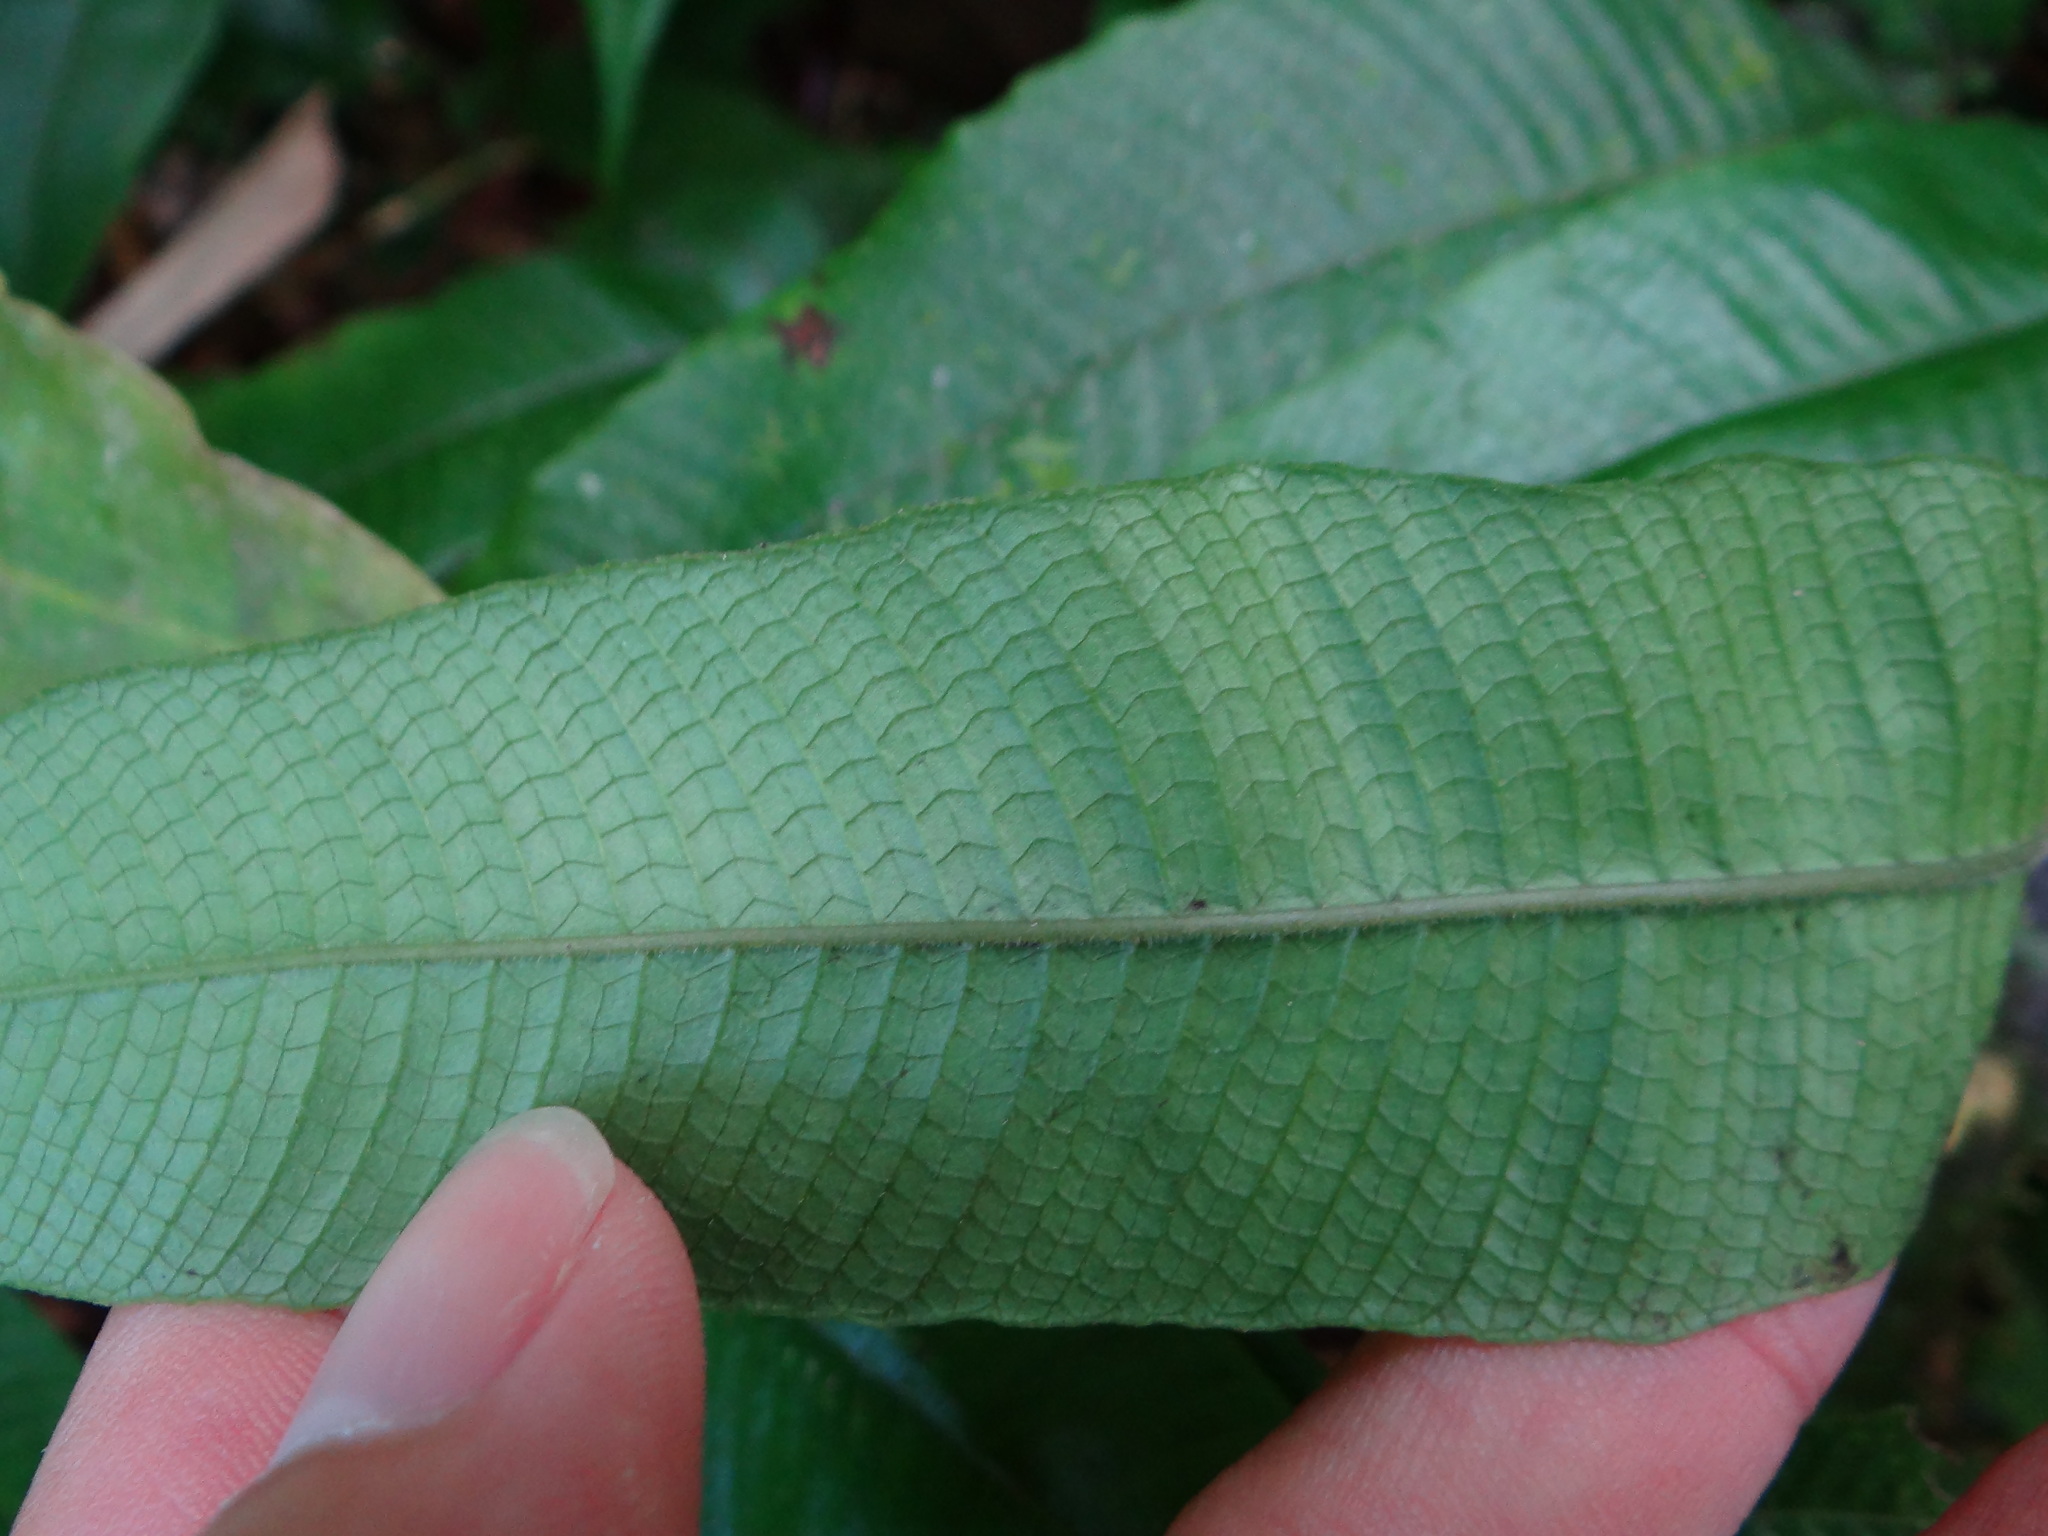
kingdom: Plantae
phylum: Tracheophyta
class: Polypodiopsida
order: Polypodiales
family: Thelypteridaceae
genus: Grypothrix
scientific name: Grypothrix triphylla
